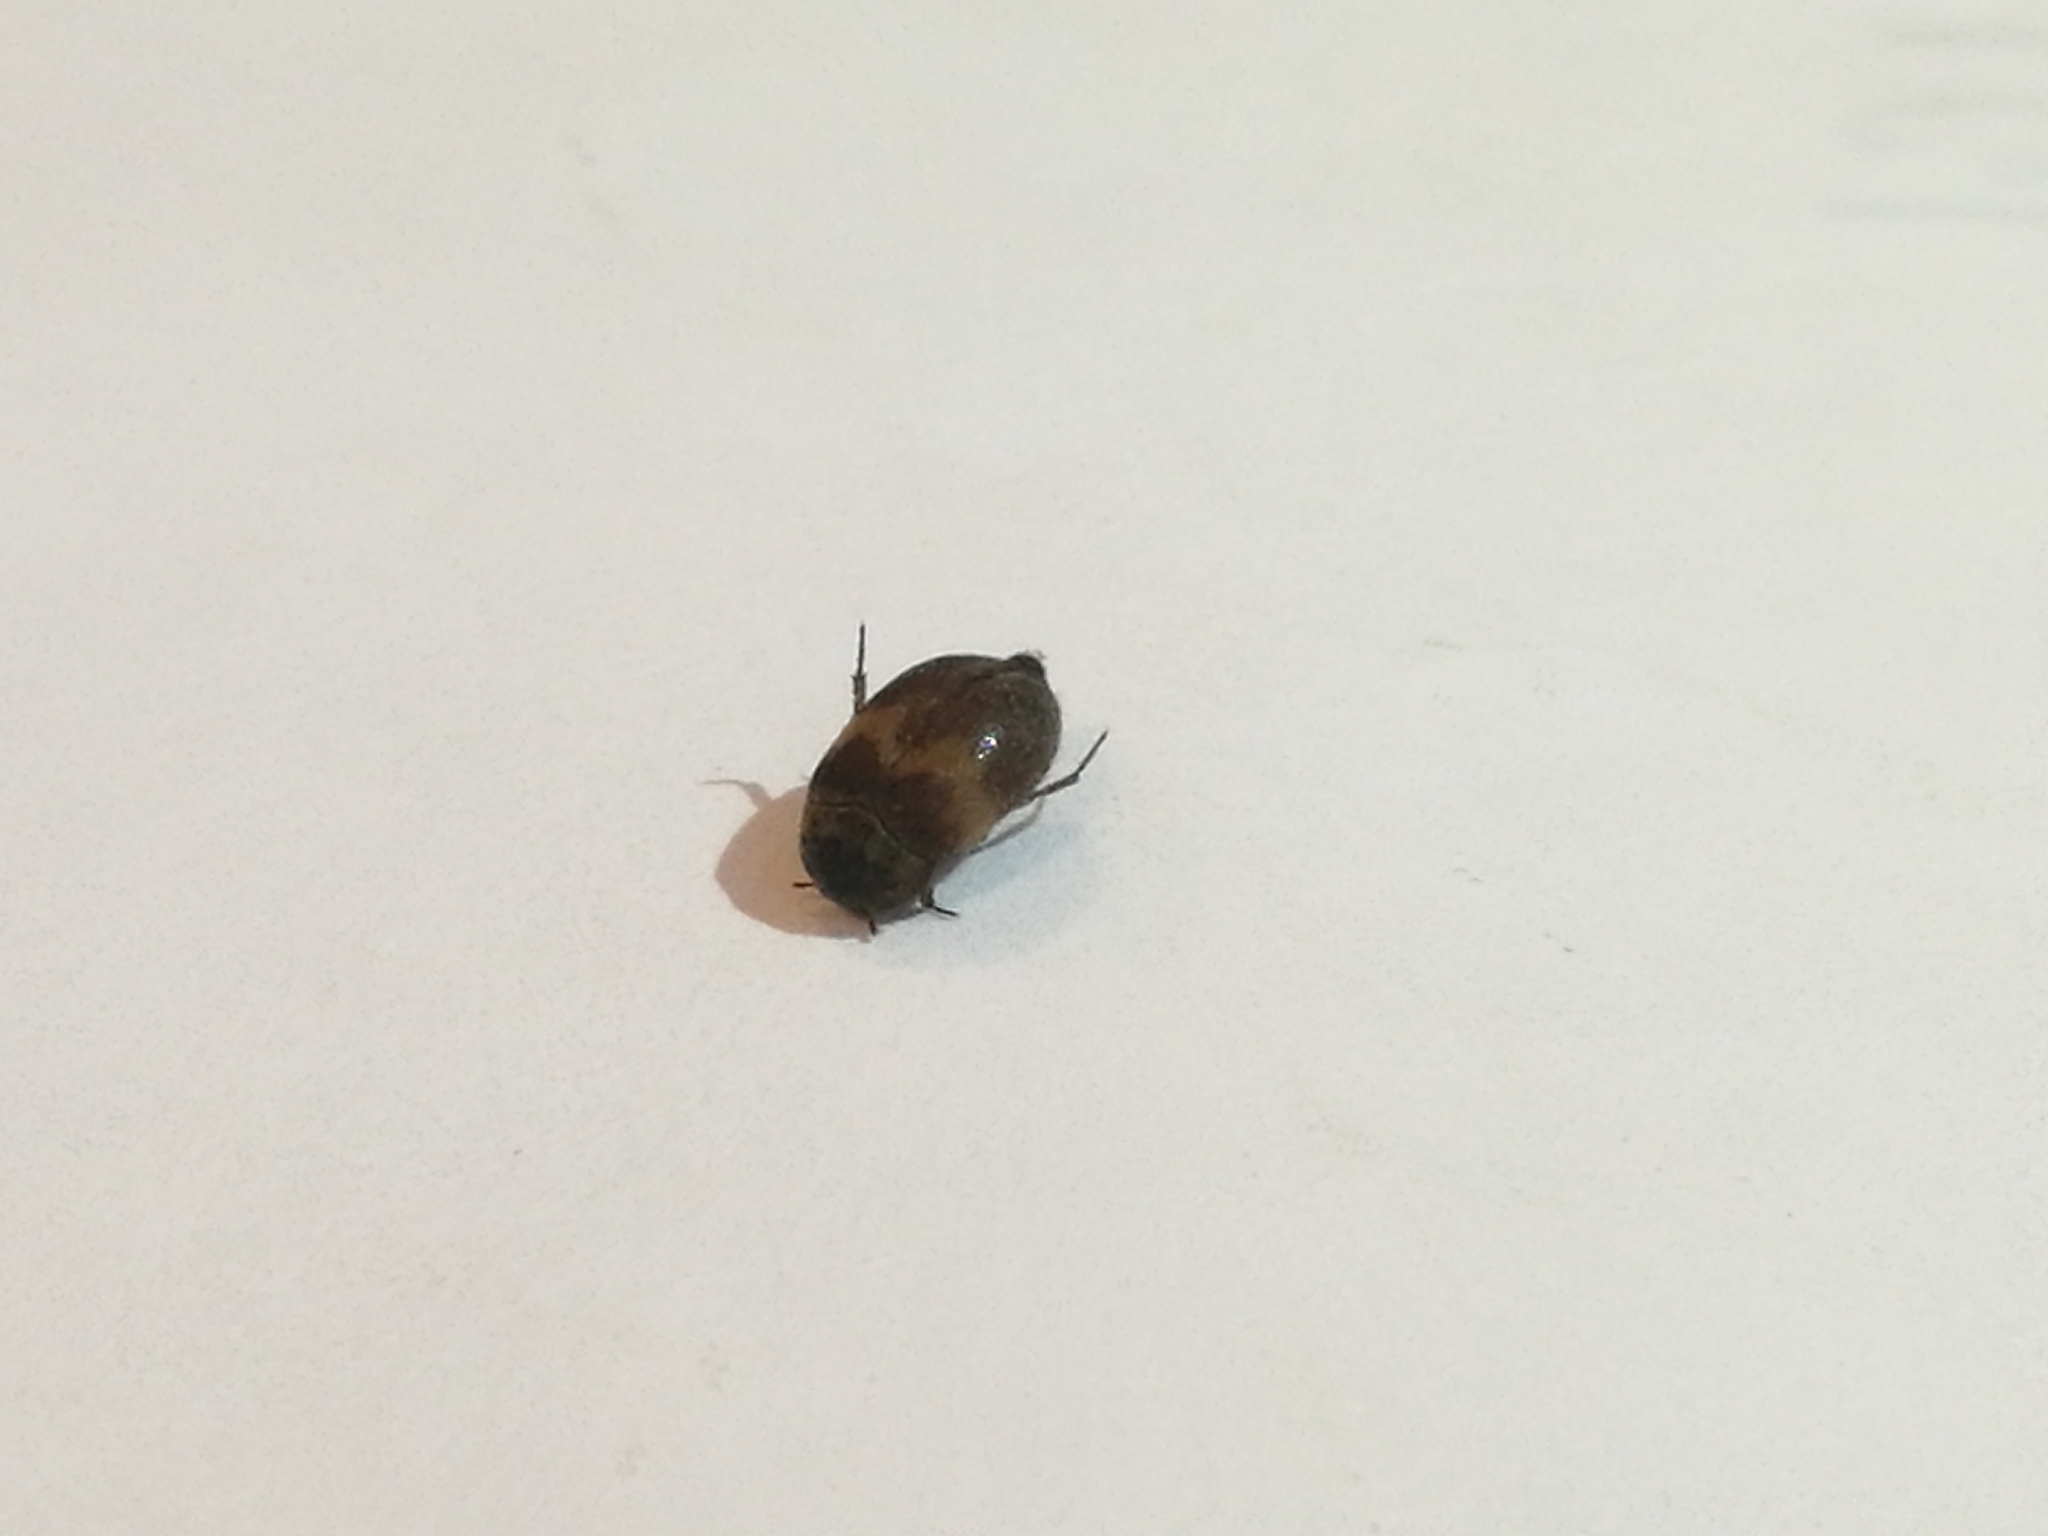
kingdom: Animalia
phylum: Arthropoda
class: Insecta
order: Coleoptera
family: Dermestidae
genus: Attagenus
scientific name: Attagenus woodroffei
